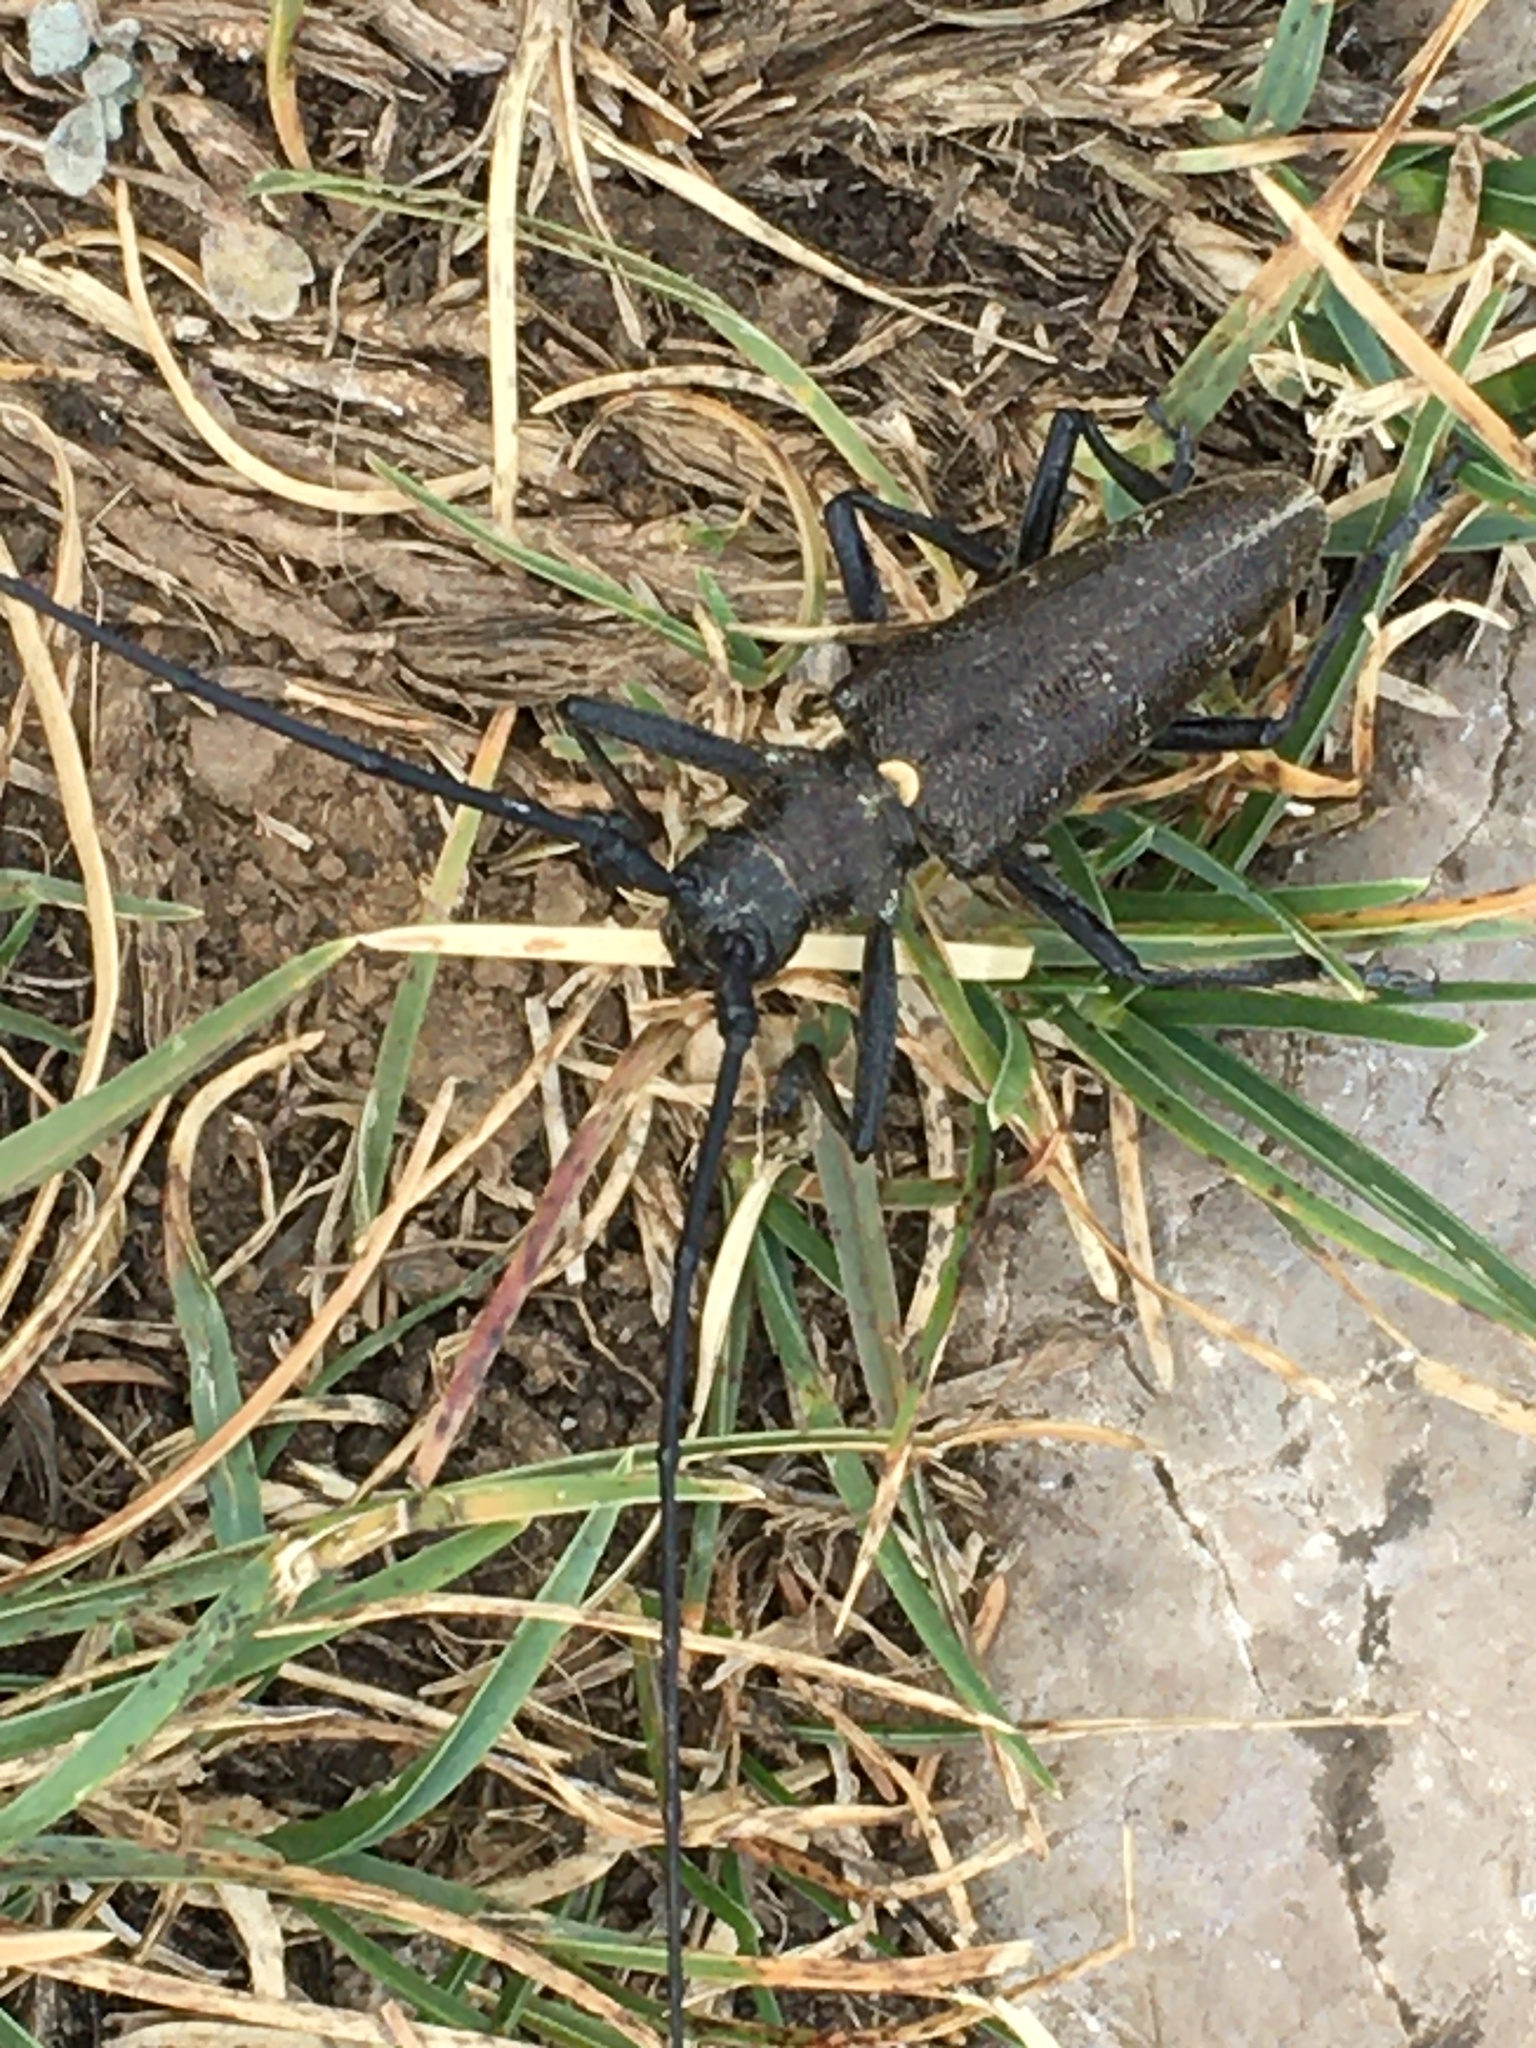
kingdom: Animalia
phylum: Arthropoda
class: Insecta
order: Coleoptera
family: Cerambycidae
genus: Monochamus
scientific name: Monochamus sartor
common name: Pine sawyer
